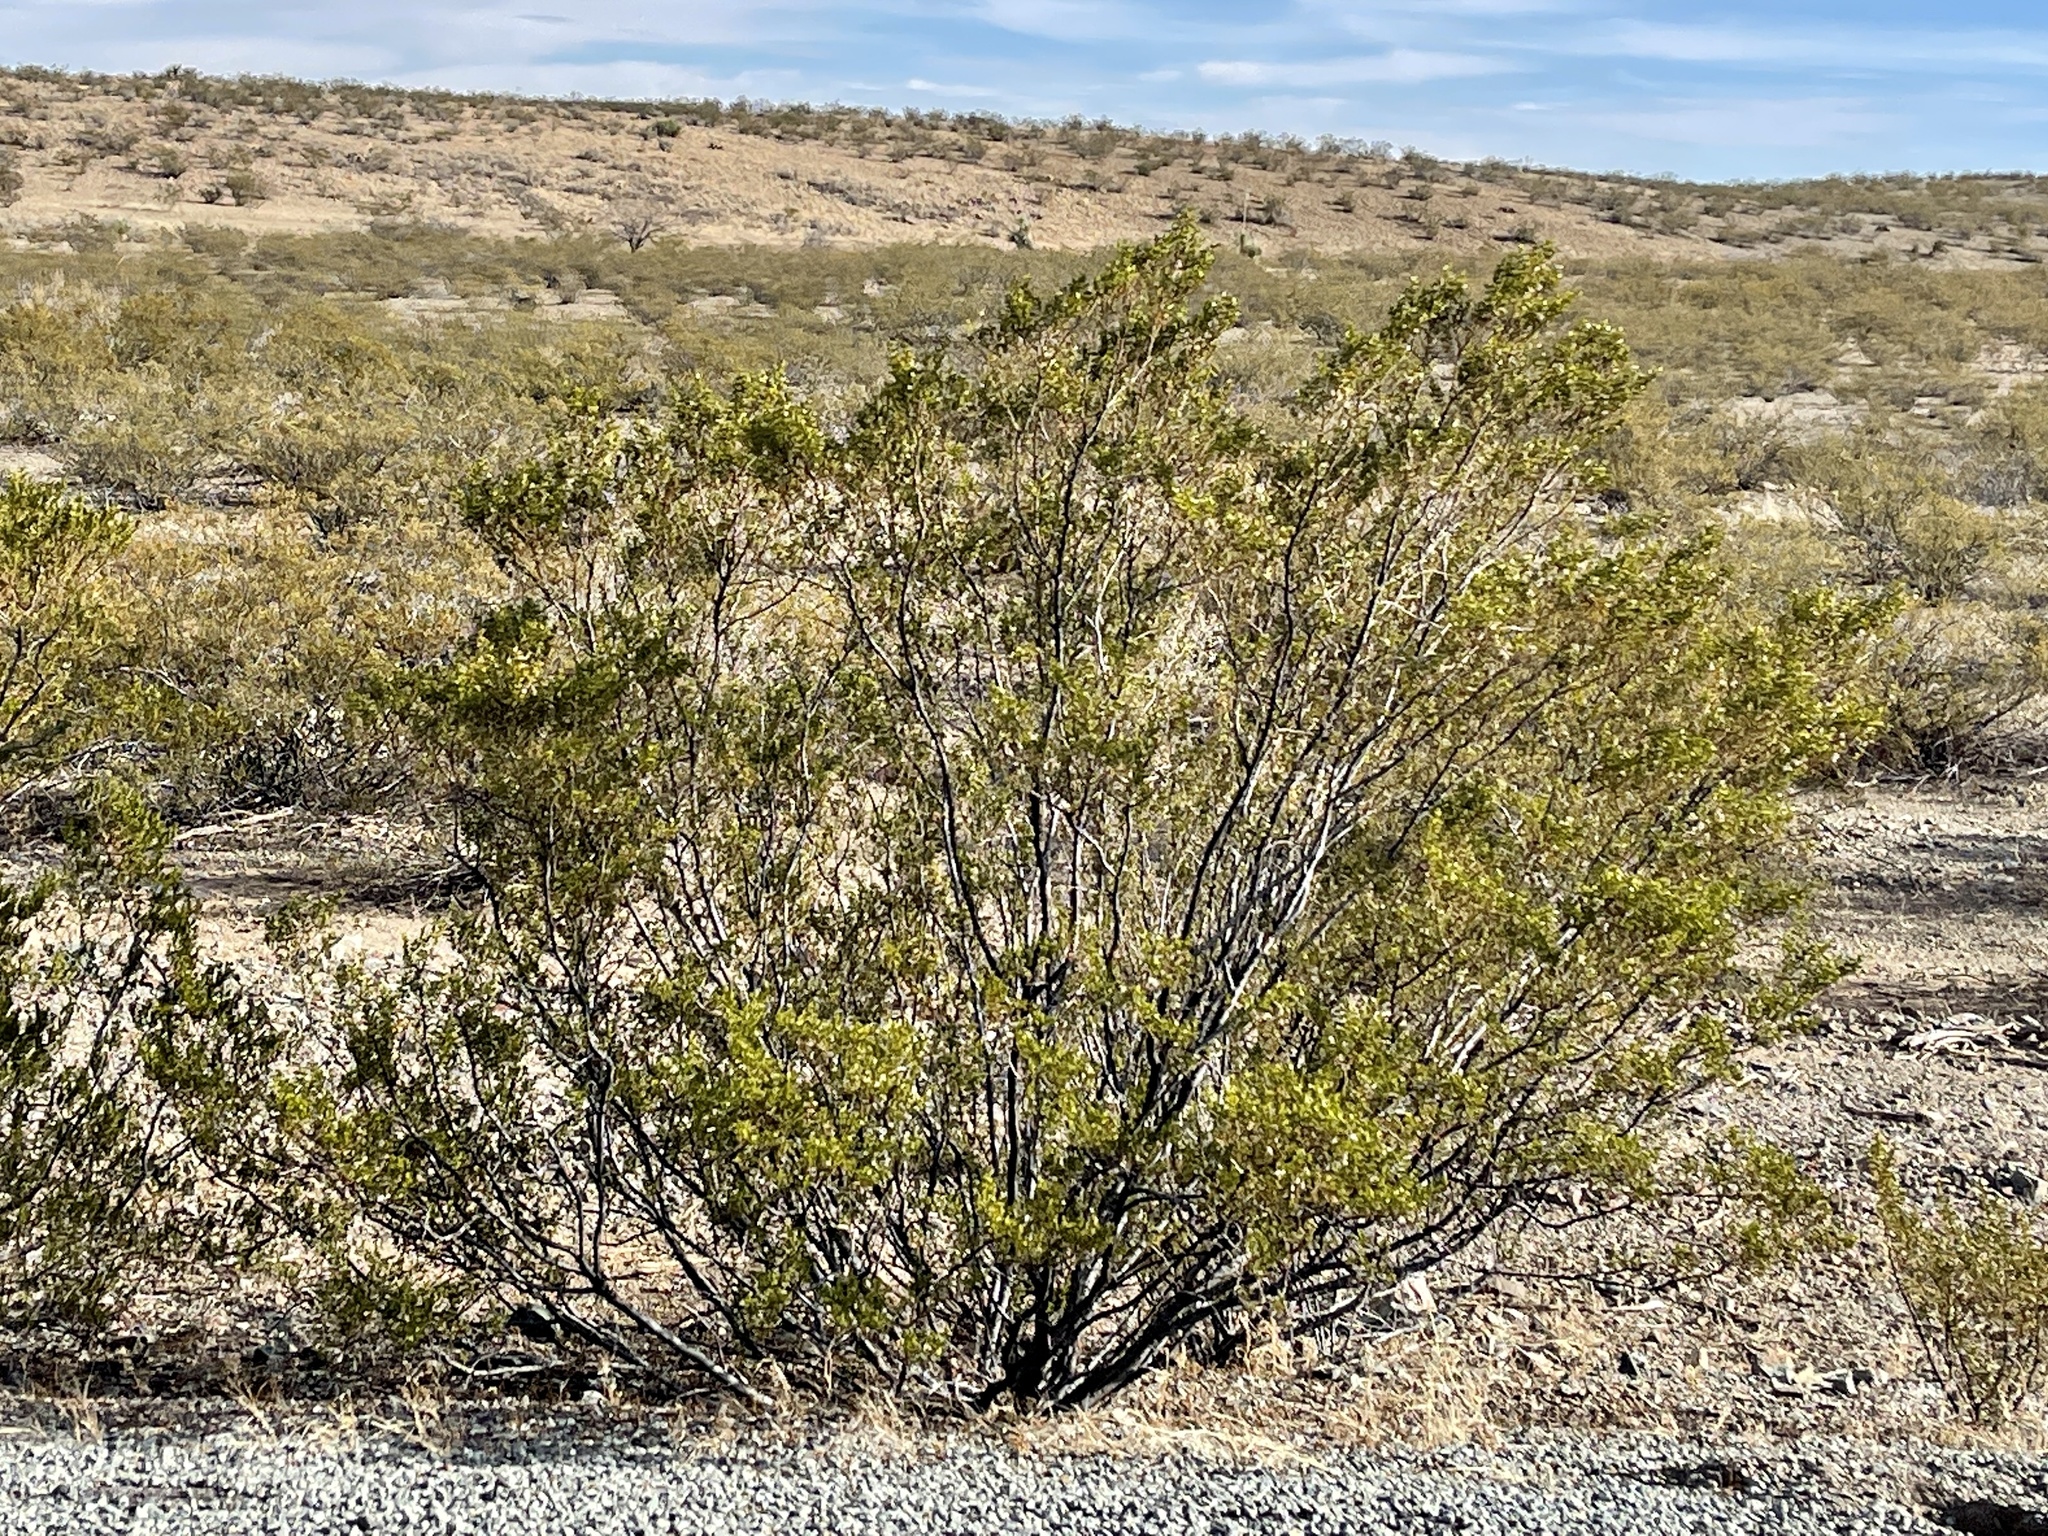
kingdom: Plantae
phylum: Tracheophyta
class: Magnoliopsida
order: Zygophyllales
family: Zygophyllaceae
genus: Larrea
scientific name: Larrea tridentata
